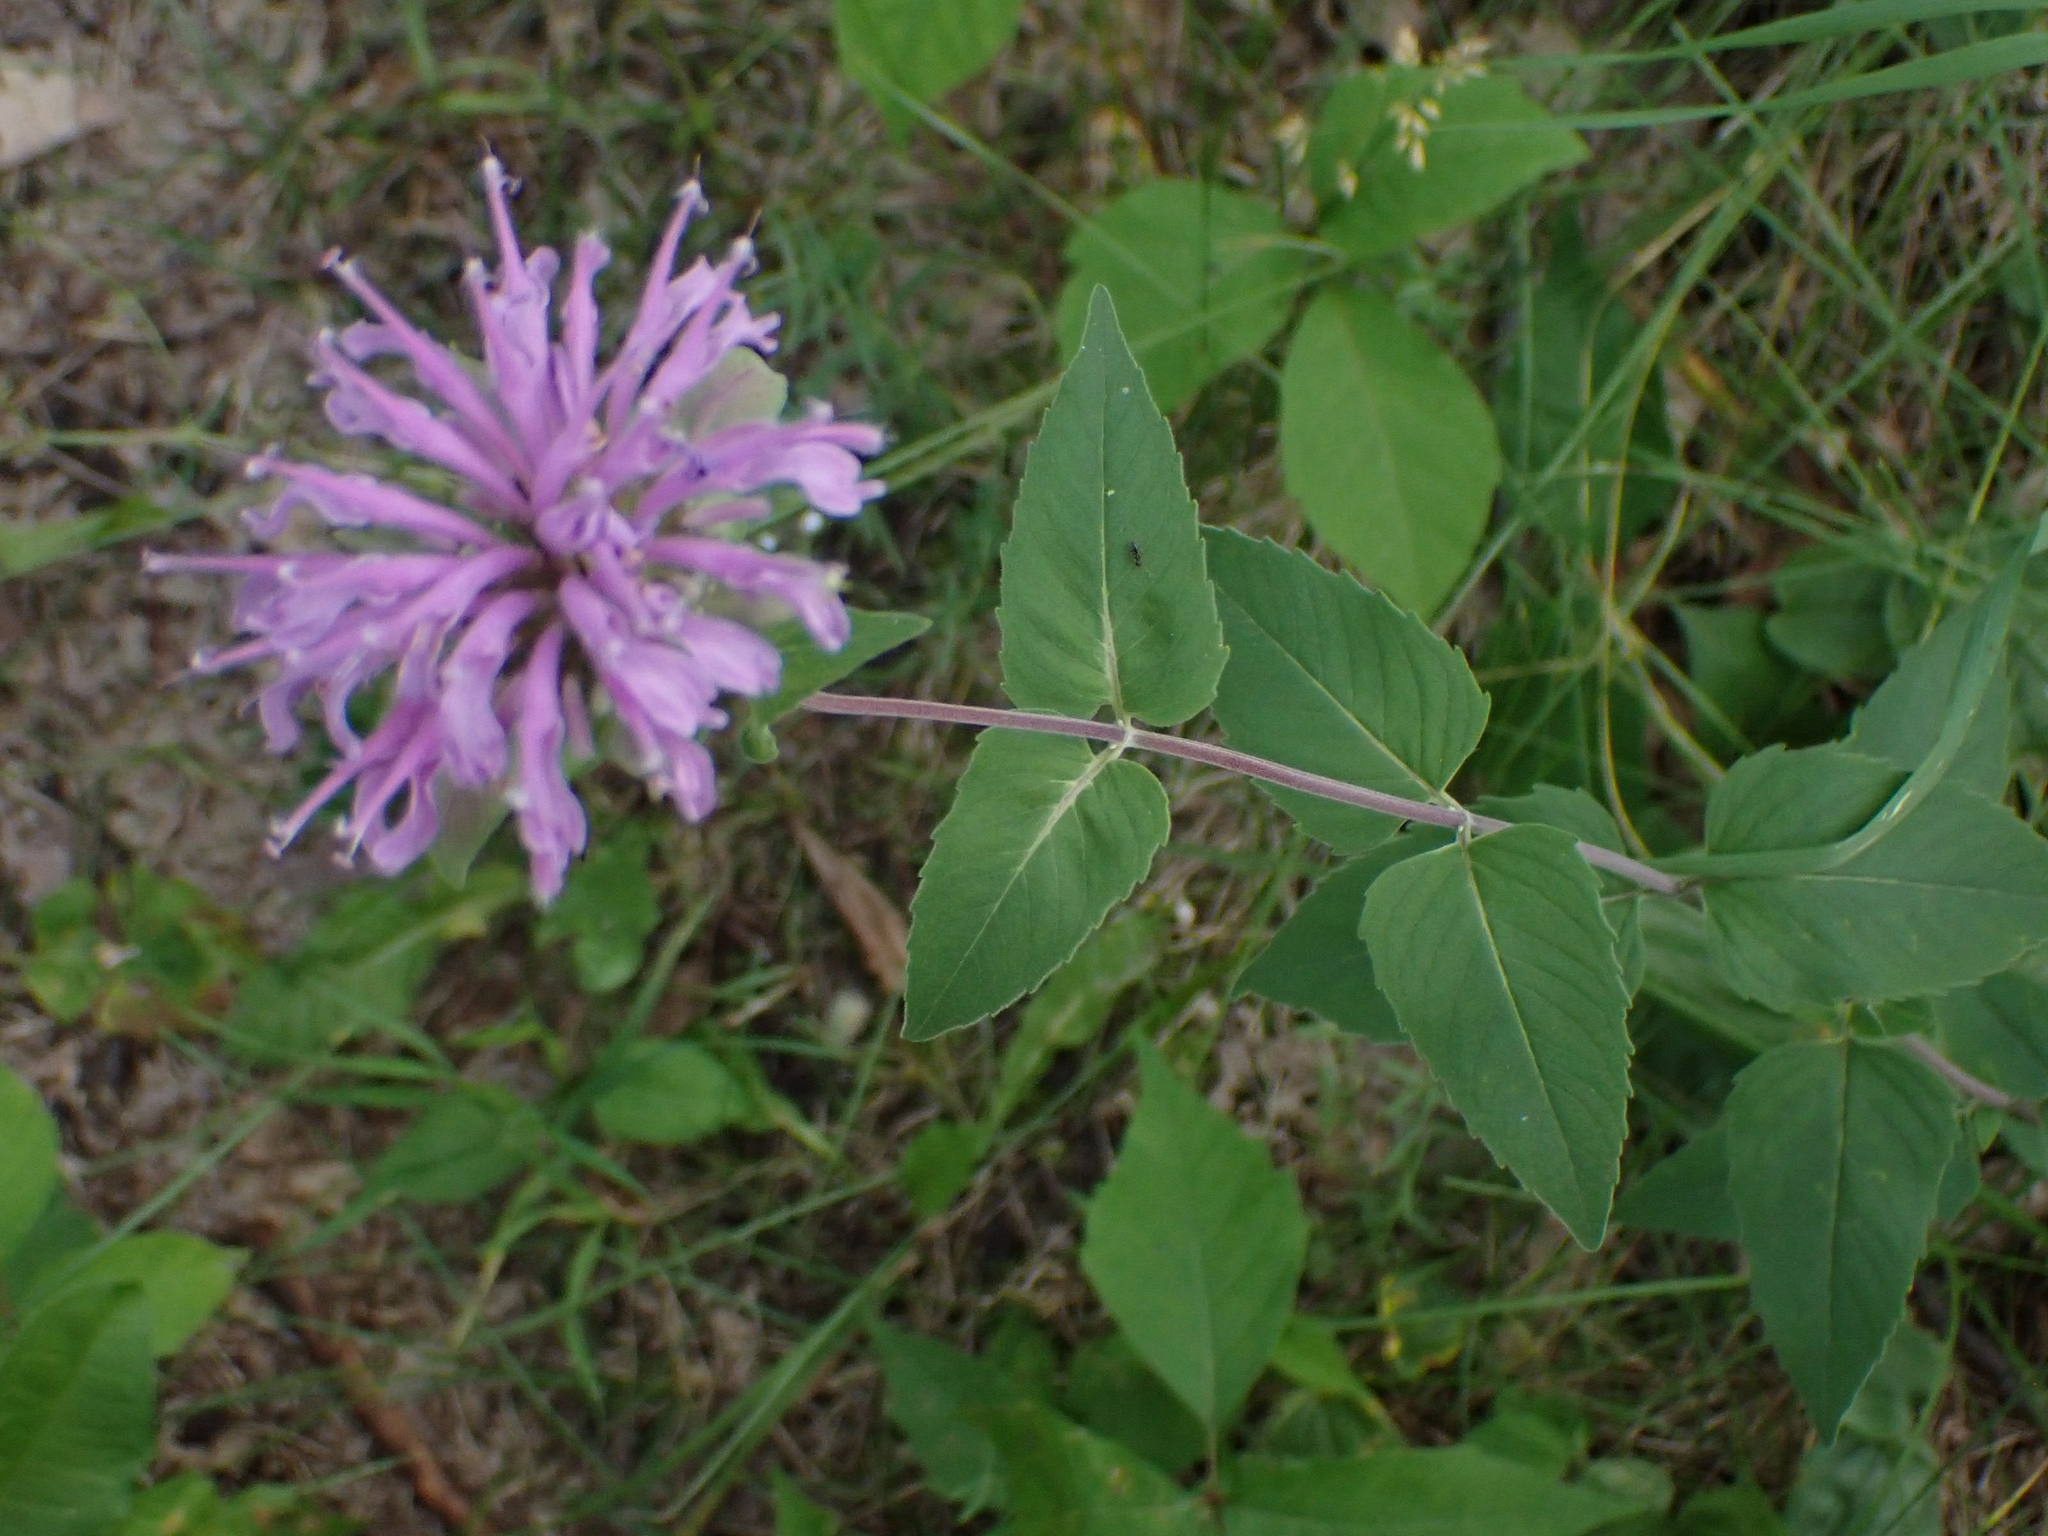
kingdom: Plantae
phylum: Tracheophyta
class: Magnoliopsida
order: Lamiales
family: Lamiaceae
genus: Monarda
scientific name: Monarda fistulosa
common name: Purple beebalm
